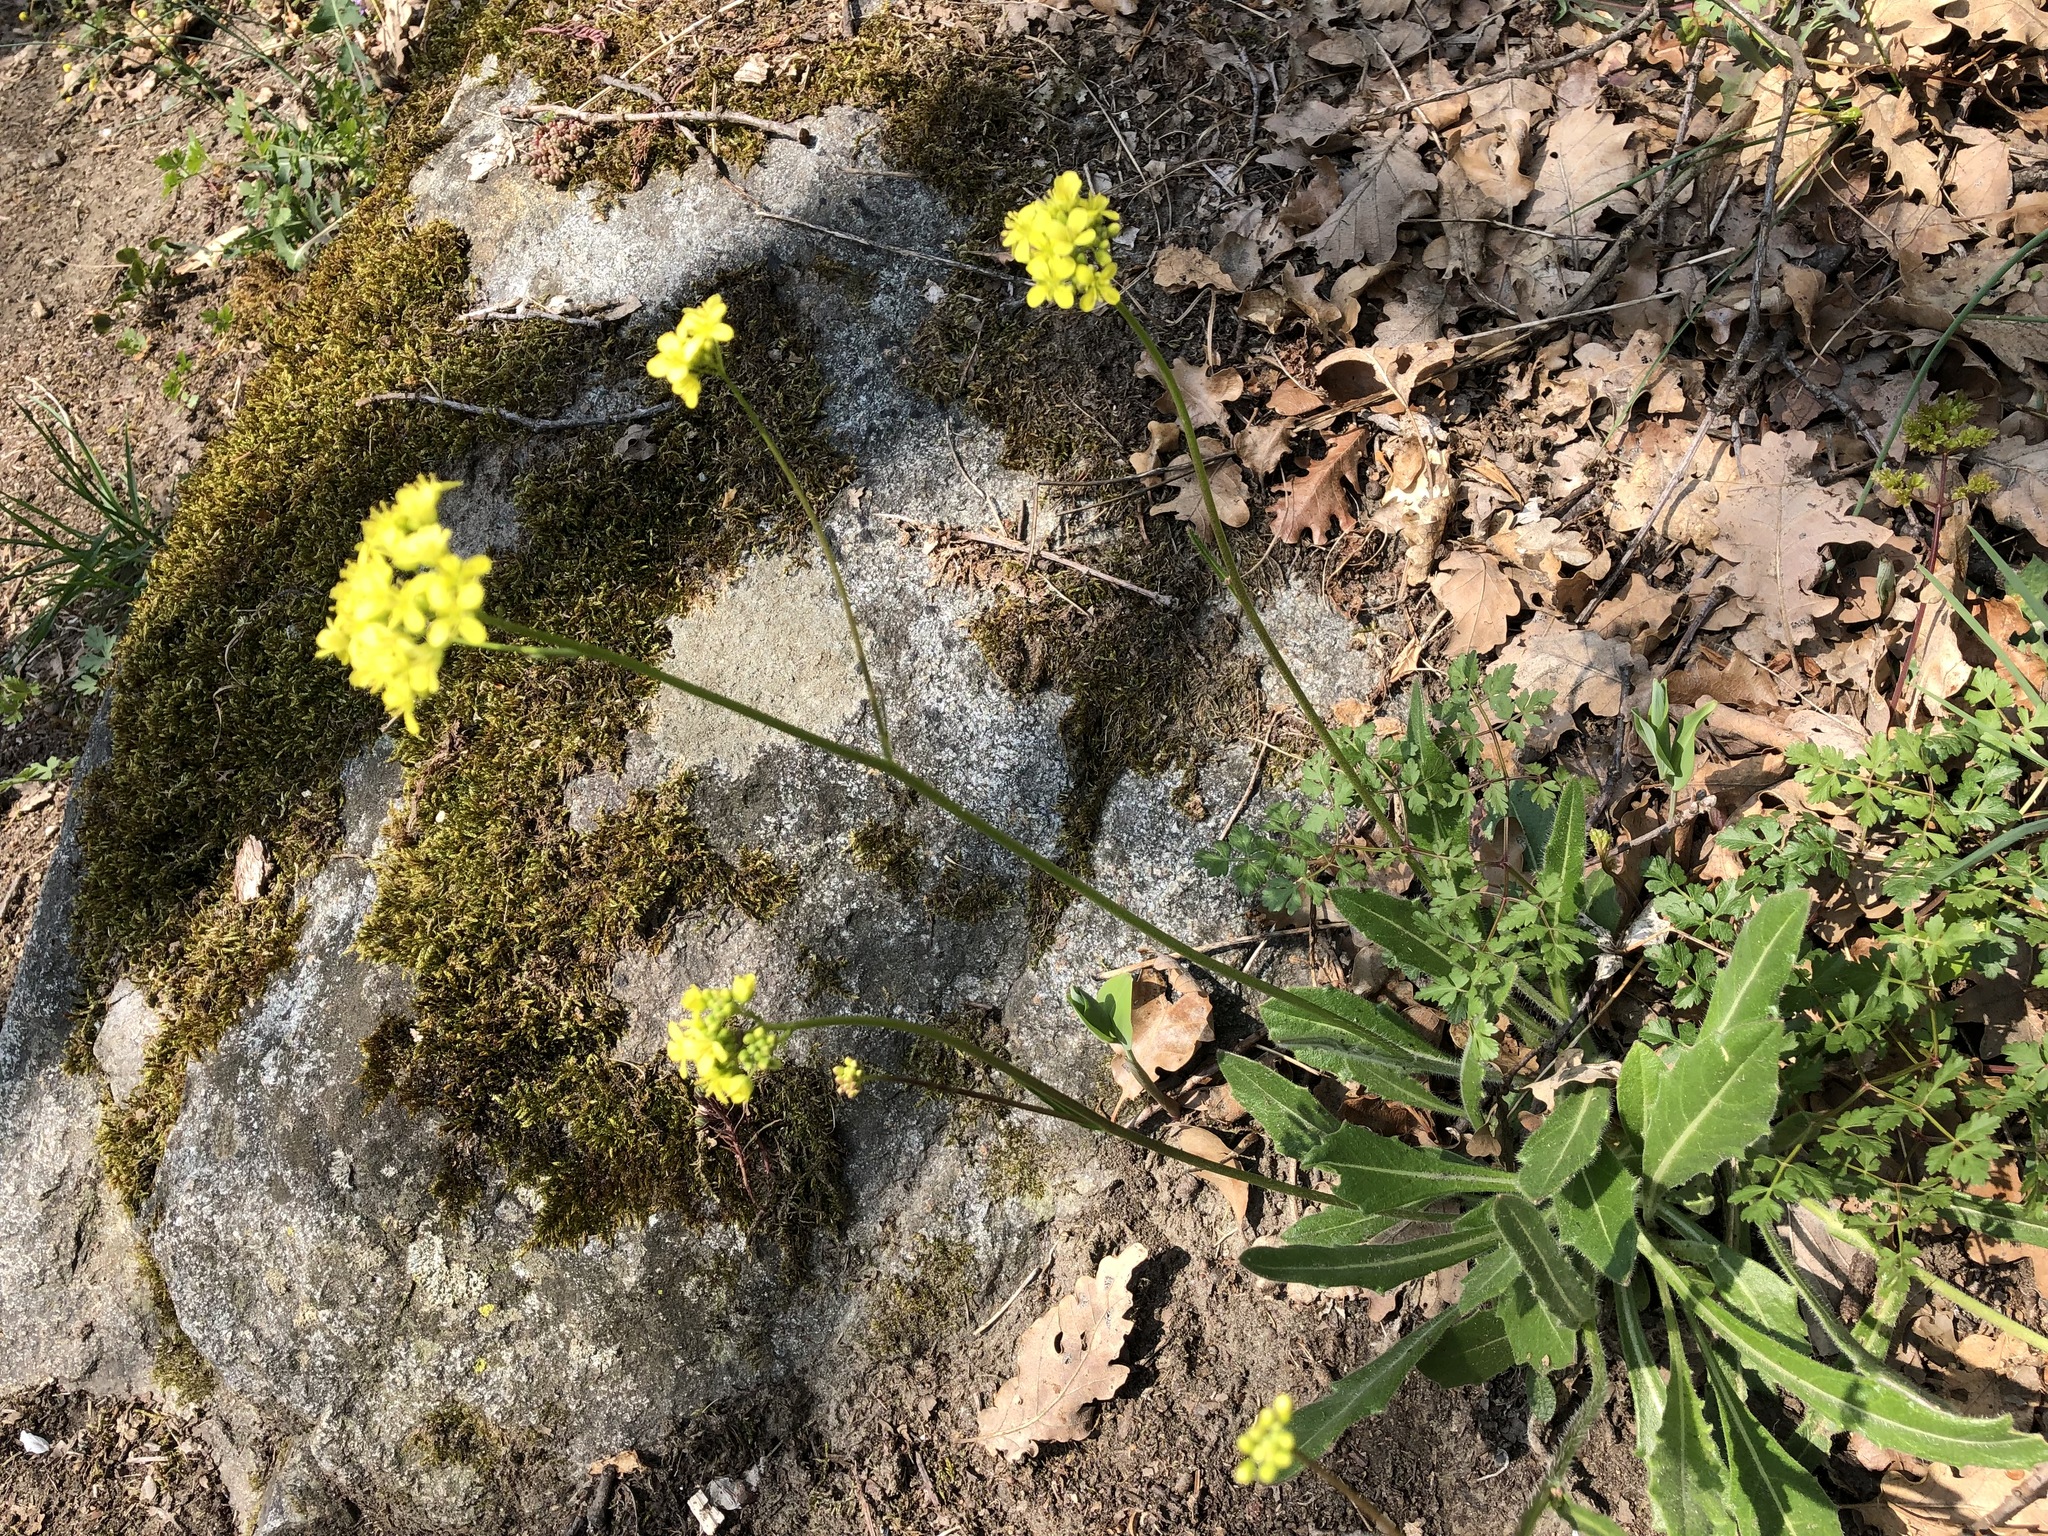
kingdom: Plantae
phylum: Tracheophyta
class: Magnoliopsida
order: Brassicales
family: Brassicaceae
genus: Biscutella
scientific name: Biscutella laevigata
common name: Buckler mustard
